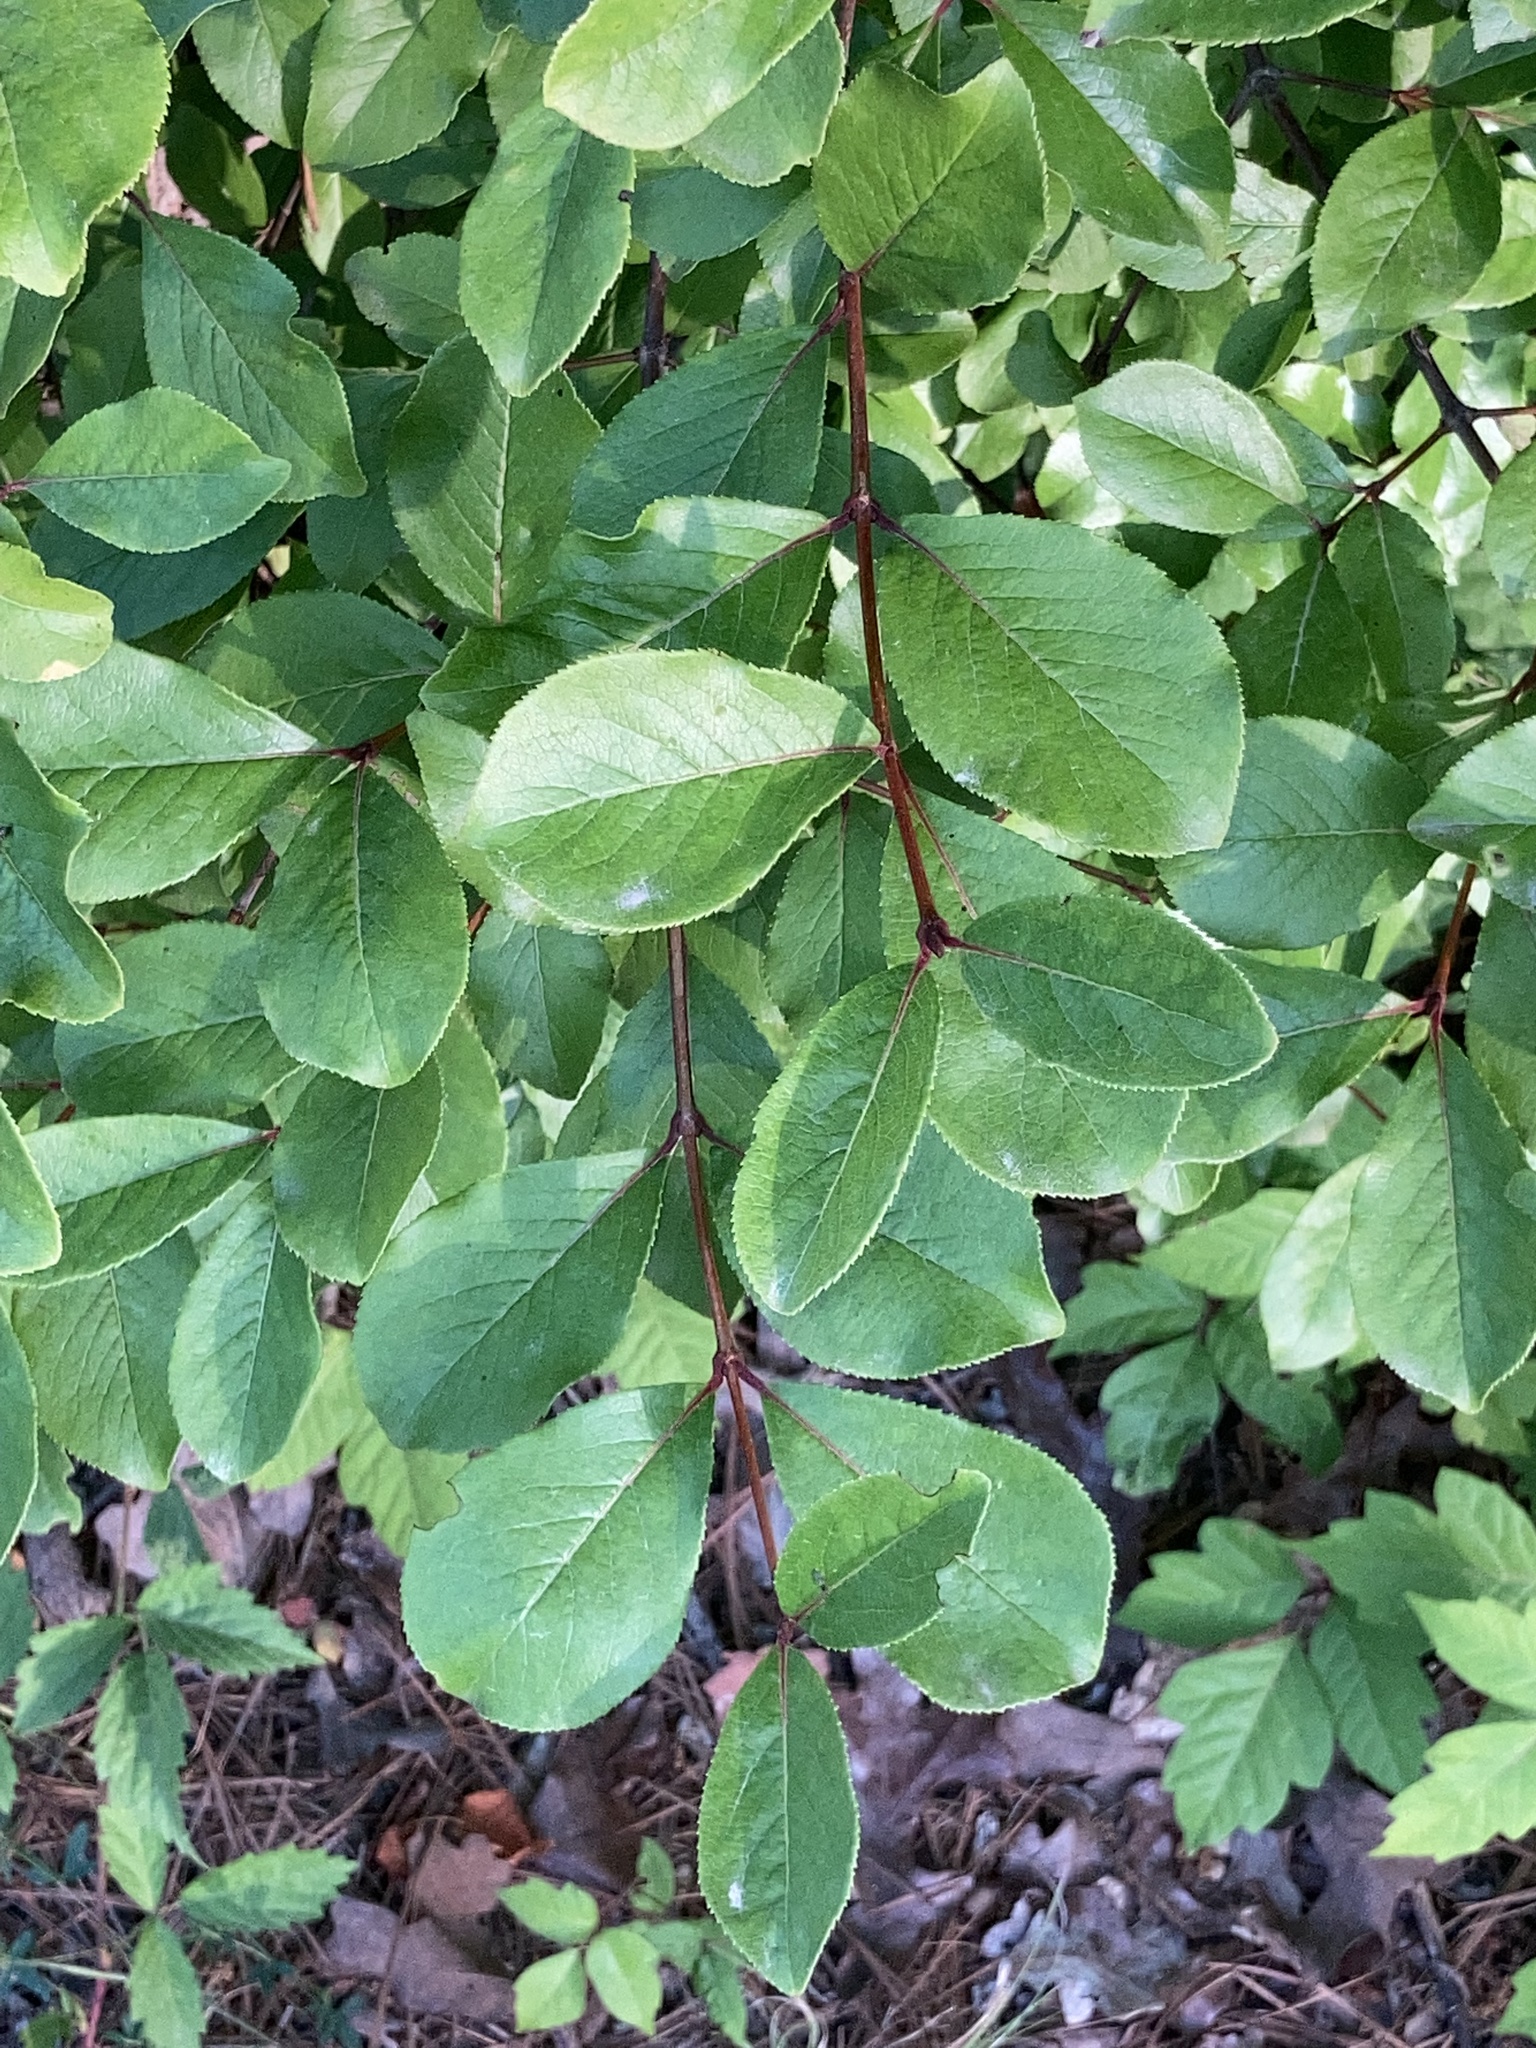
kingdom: Plantae
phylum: Tracheophyta
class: Magnoliopsida
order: Dipsacales
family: Viburnaceae
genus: Viburnum
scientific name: Viburnum rufidulum
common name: Blue haw
